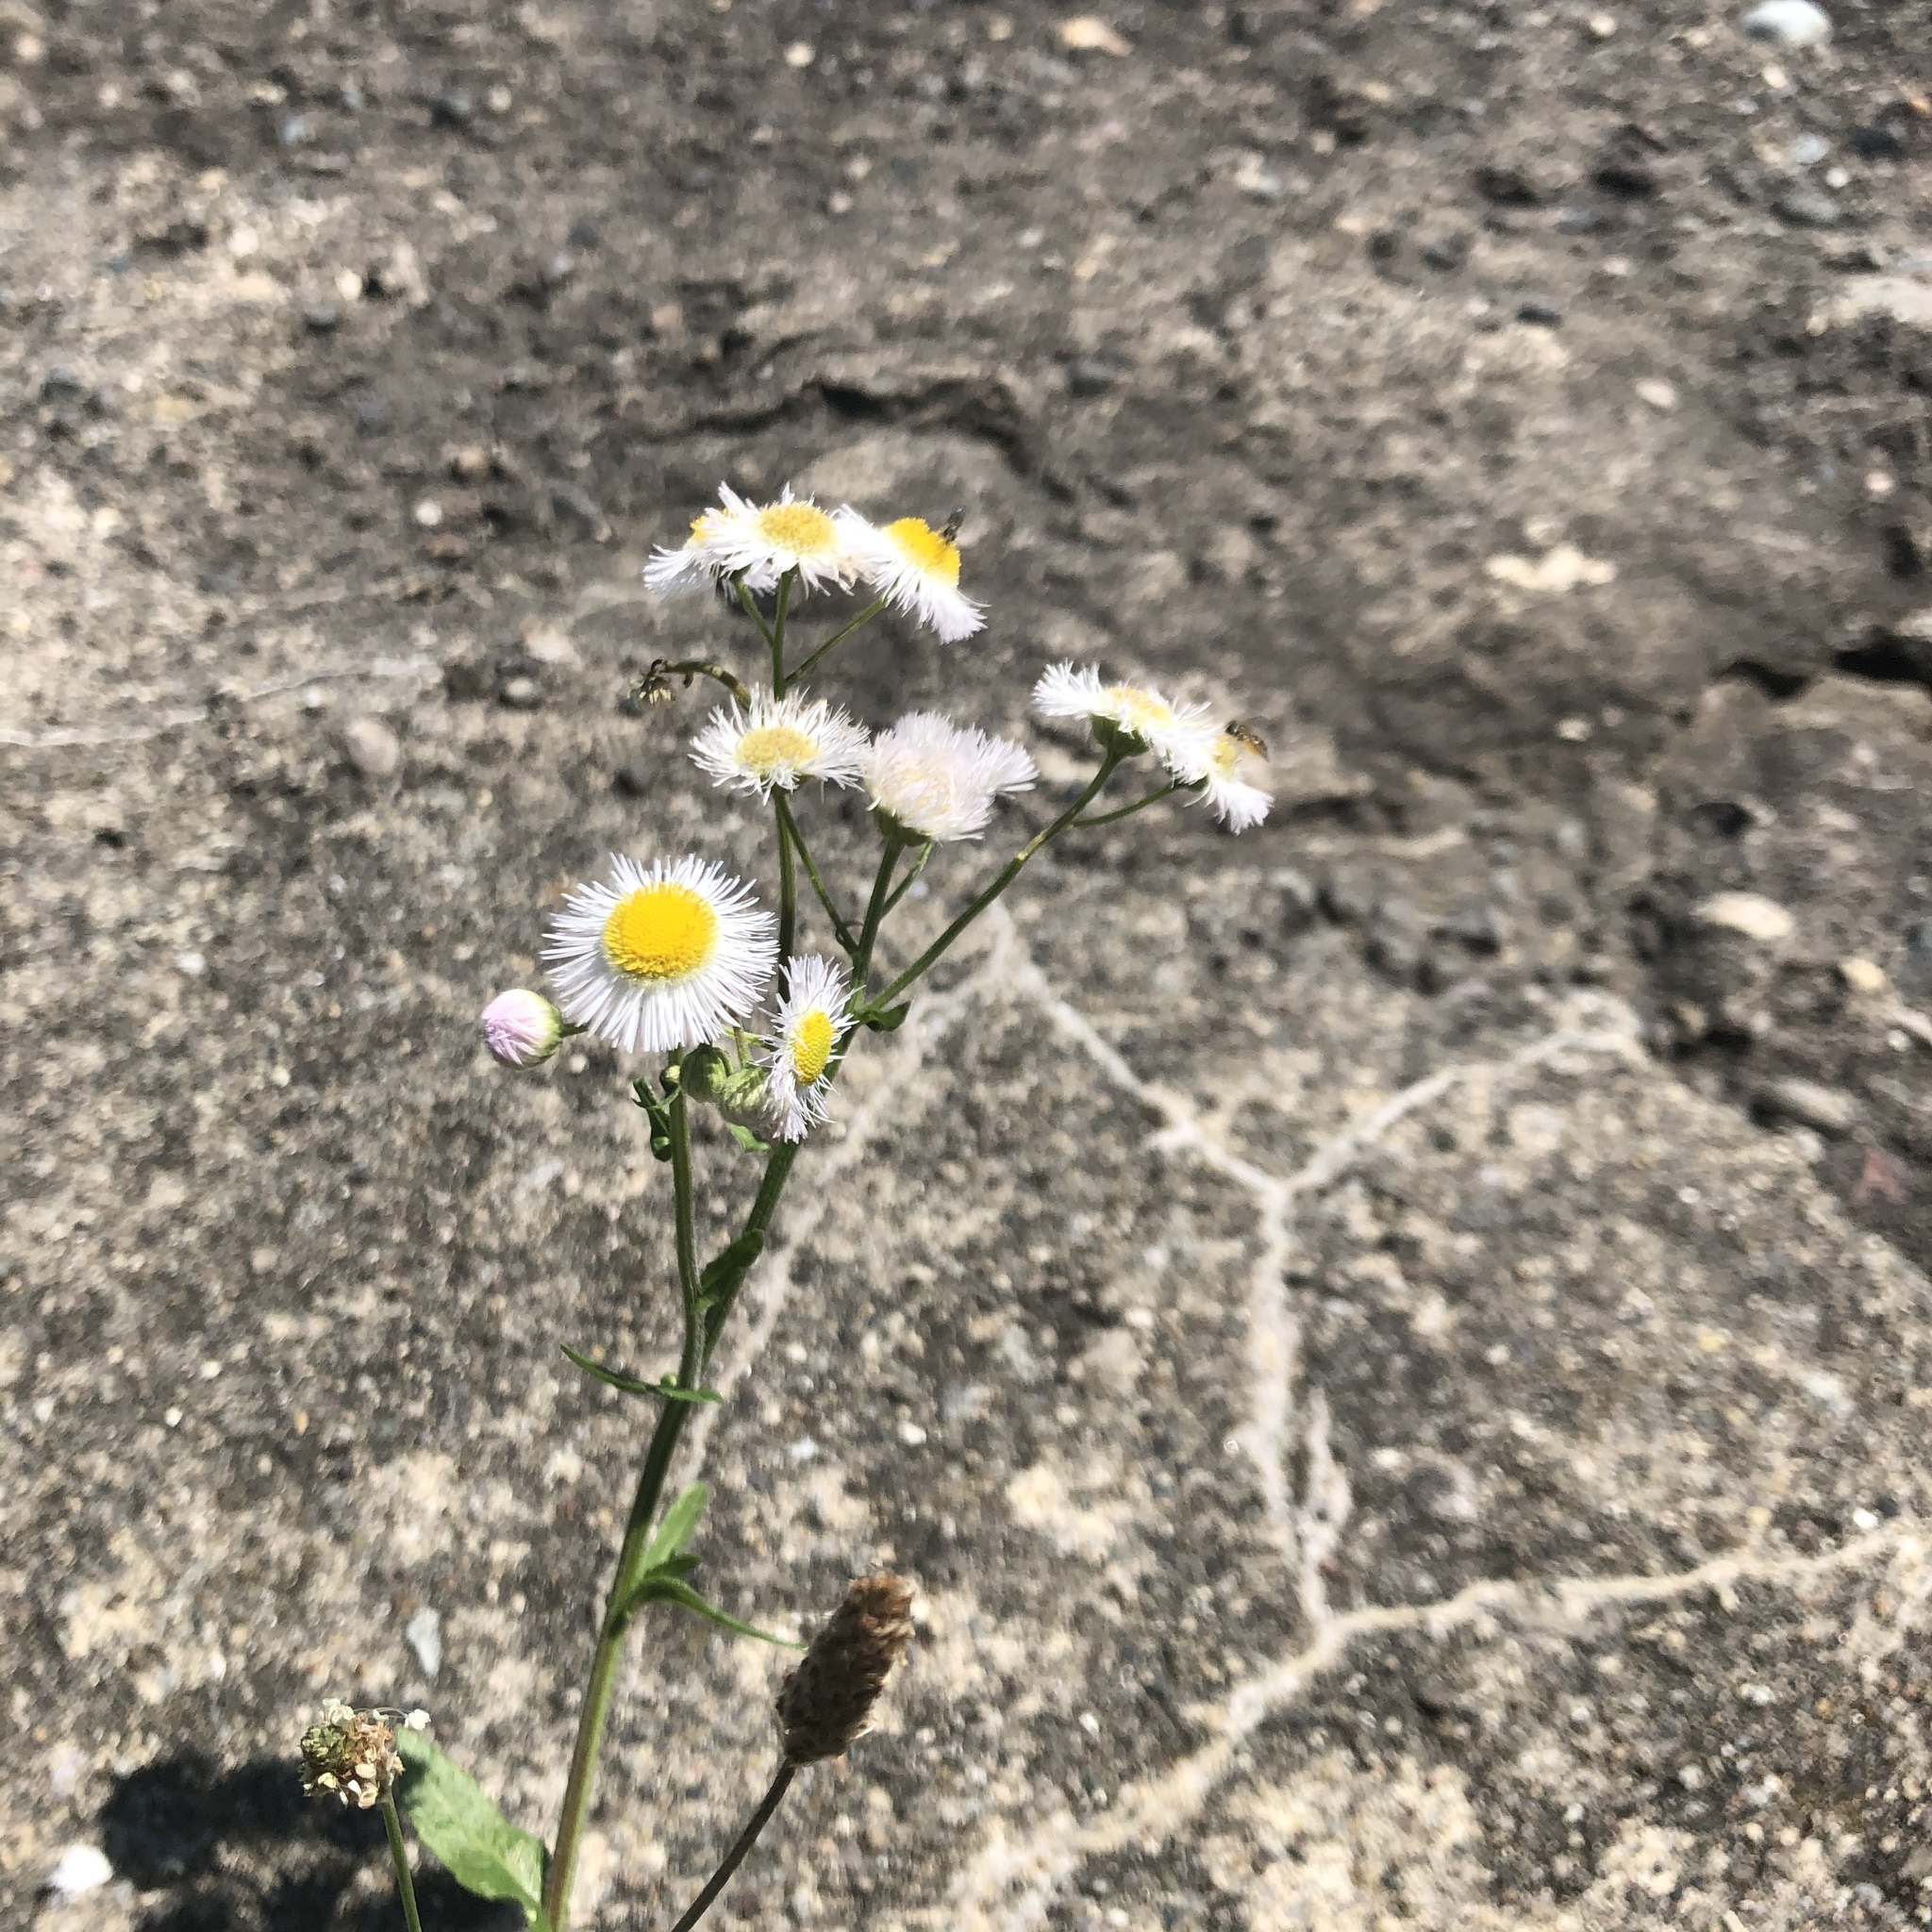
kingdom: Plantae
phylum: Tracheophyta
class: Magnoliopsida
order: Asterales
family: Asteraceae
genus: Erigeron
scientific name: Erigeron philadelphicus
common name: Robin's-plantain
